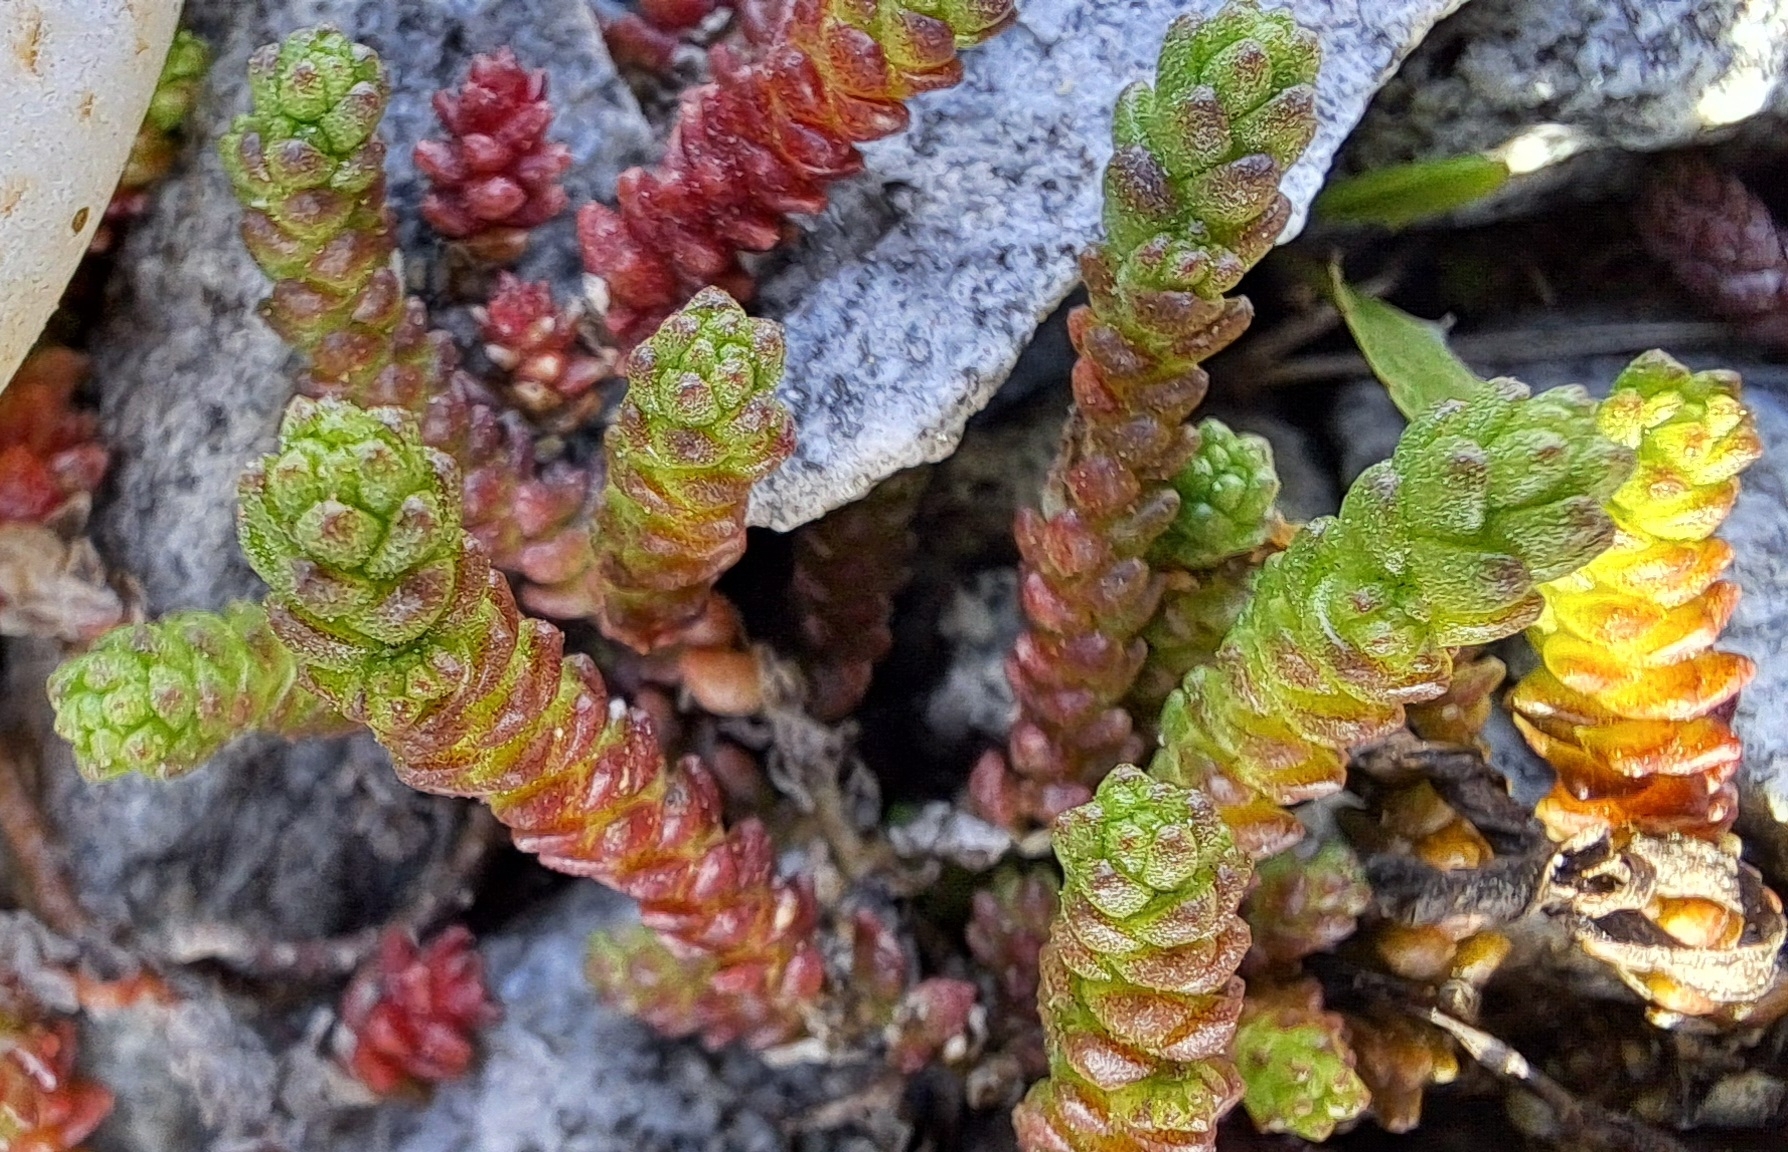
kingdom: Plantae
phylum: Tracheophyta
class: Magnoliopsida
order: Saxifragales
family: Crassulaceae
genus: Sedum
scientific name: Sedum acre
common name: Biting stonecrop
